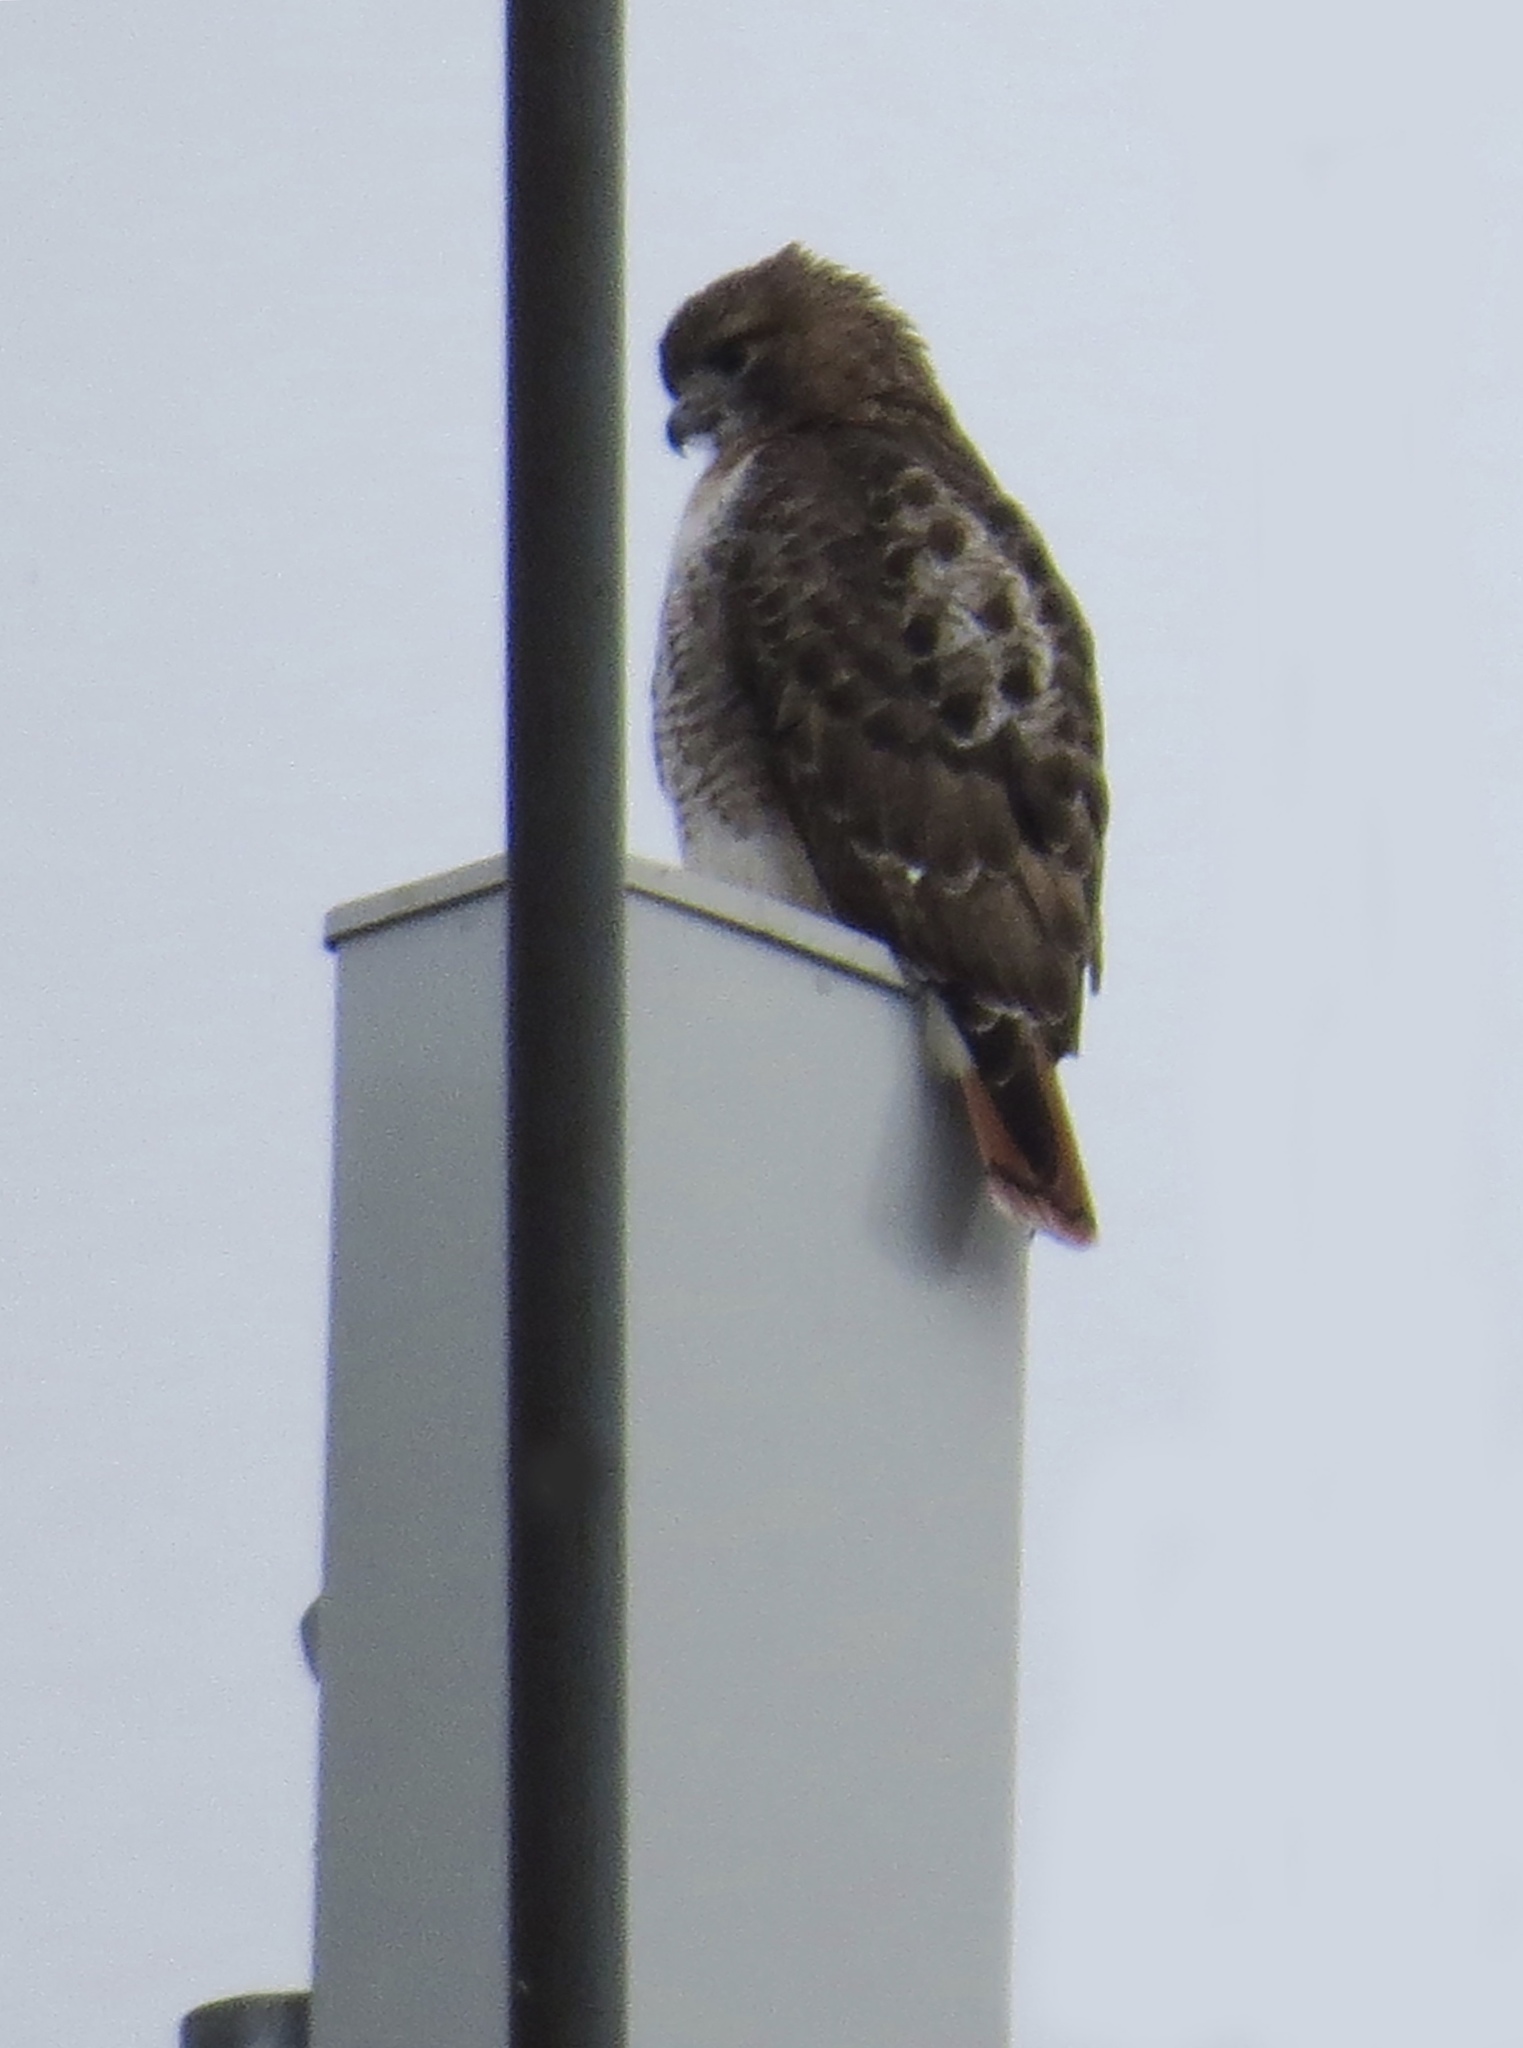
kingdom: Animalia
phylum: Chordata
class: Aves
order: Accipitriformes
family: Accipitridae
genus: Buteo
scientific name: Buteo jamaicensis
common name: Red-tailed hawk
